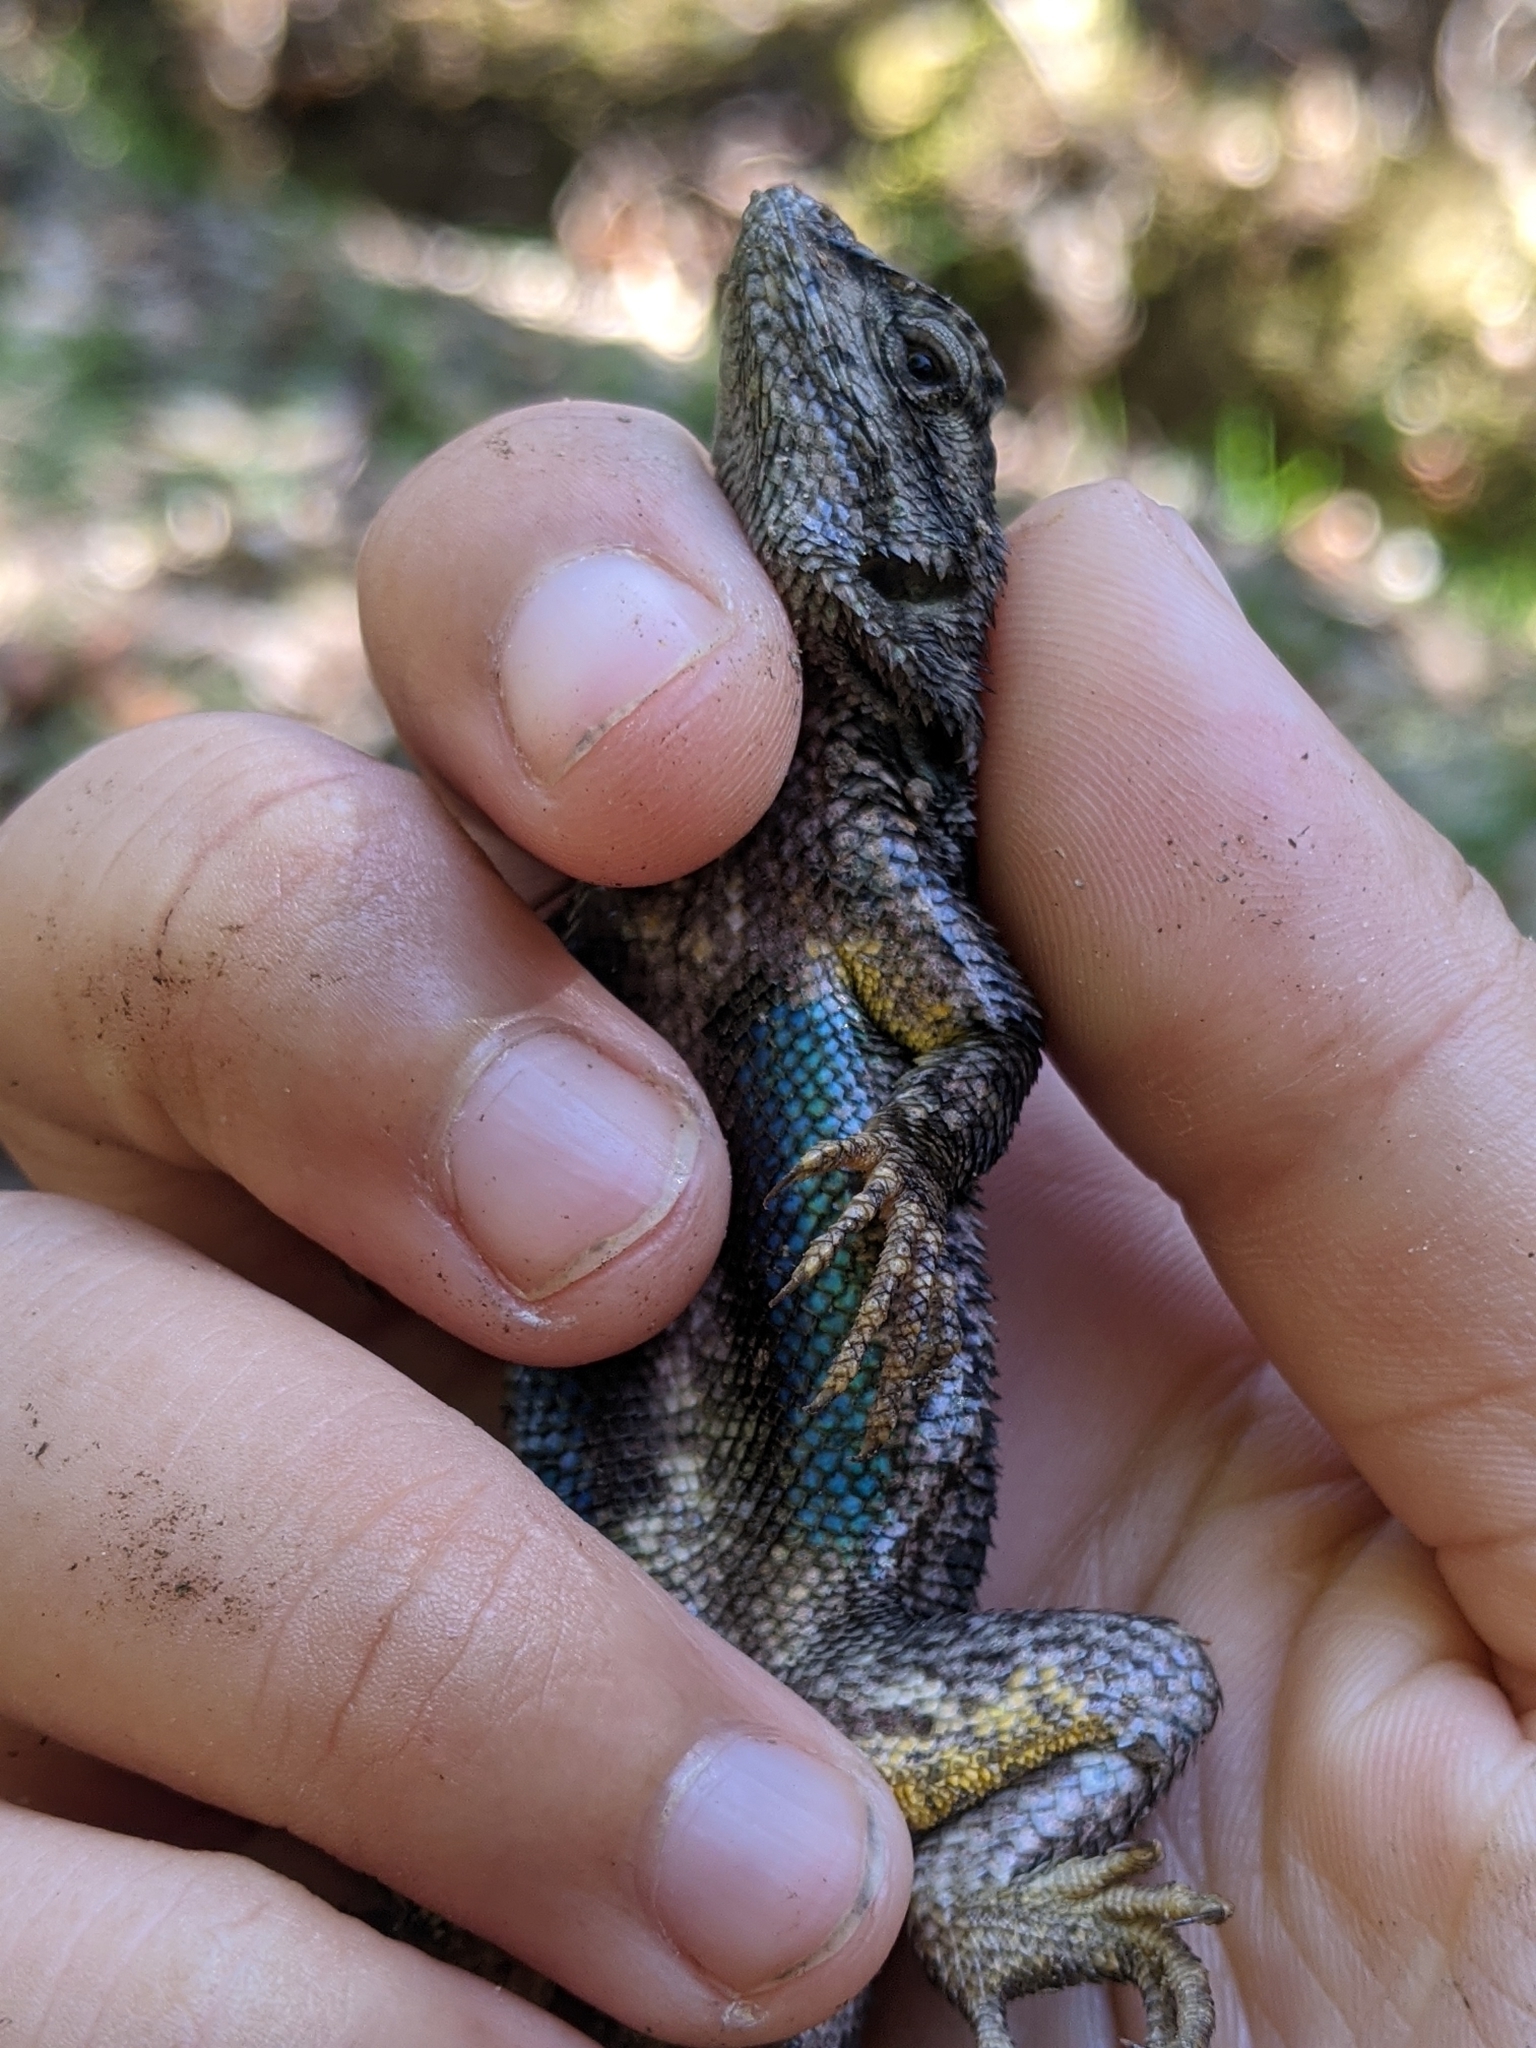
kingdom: Animalia
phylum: Chordata
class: Squamata
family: Phrynosomatidae
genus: Sceloporus
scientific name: Sceloporus occidentalis
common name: Western fence lizard
